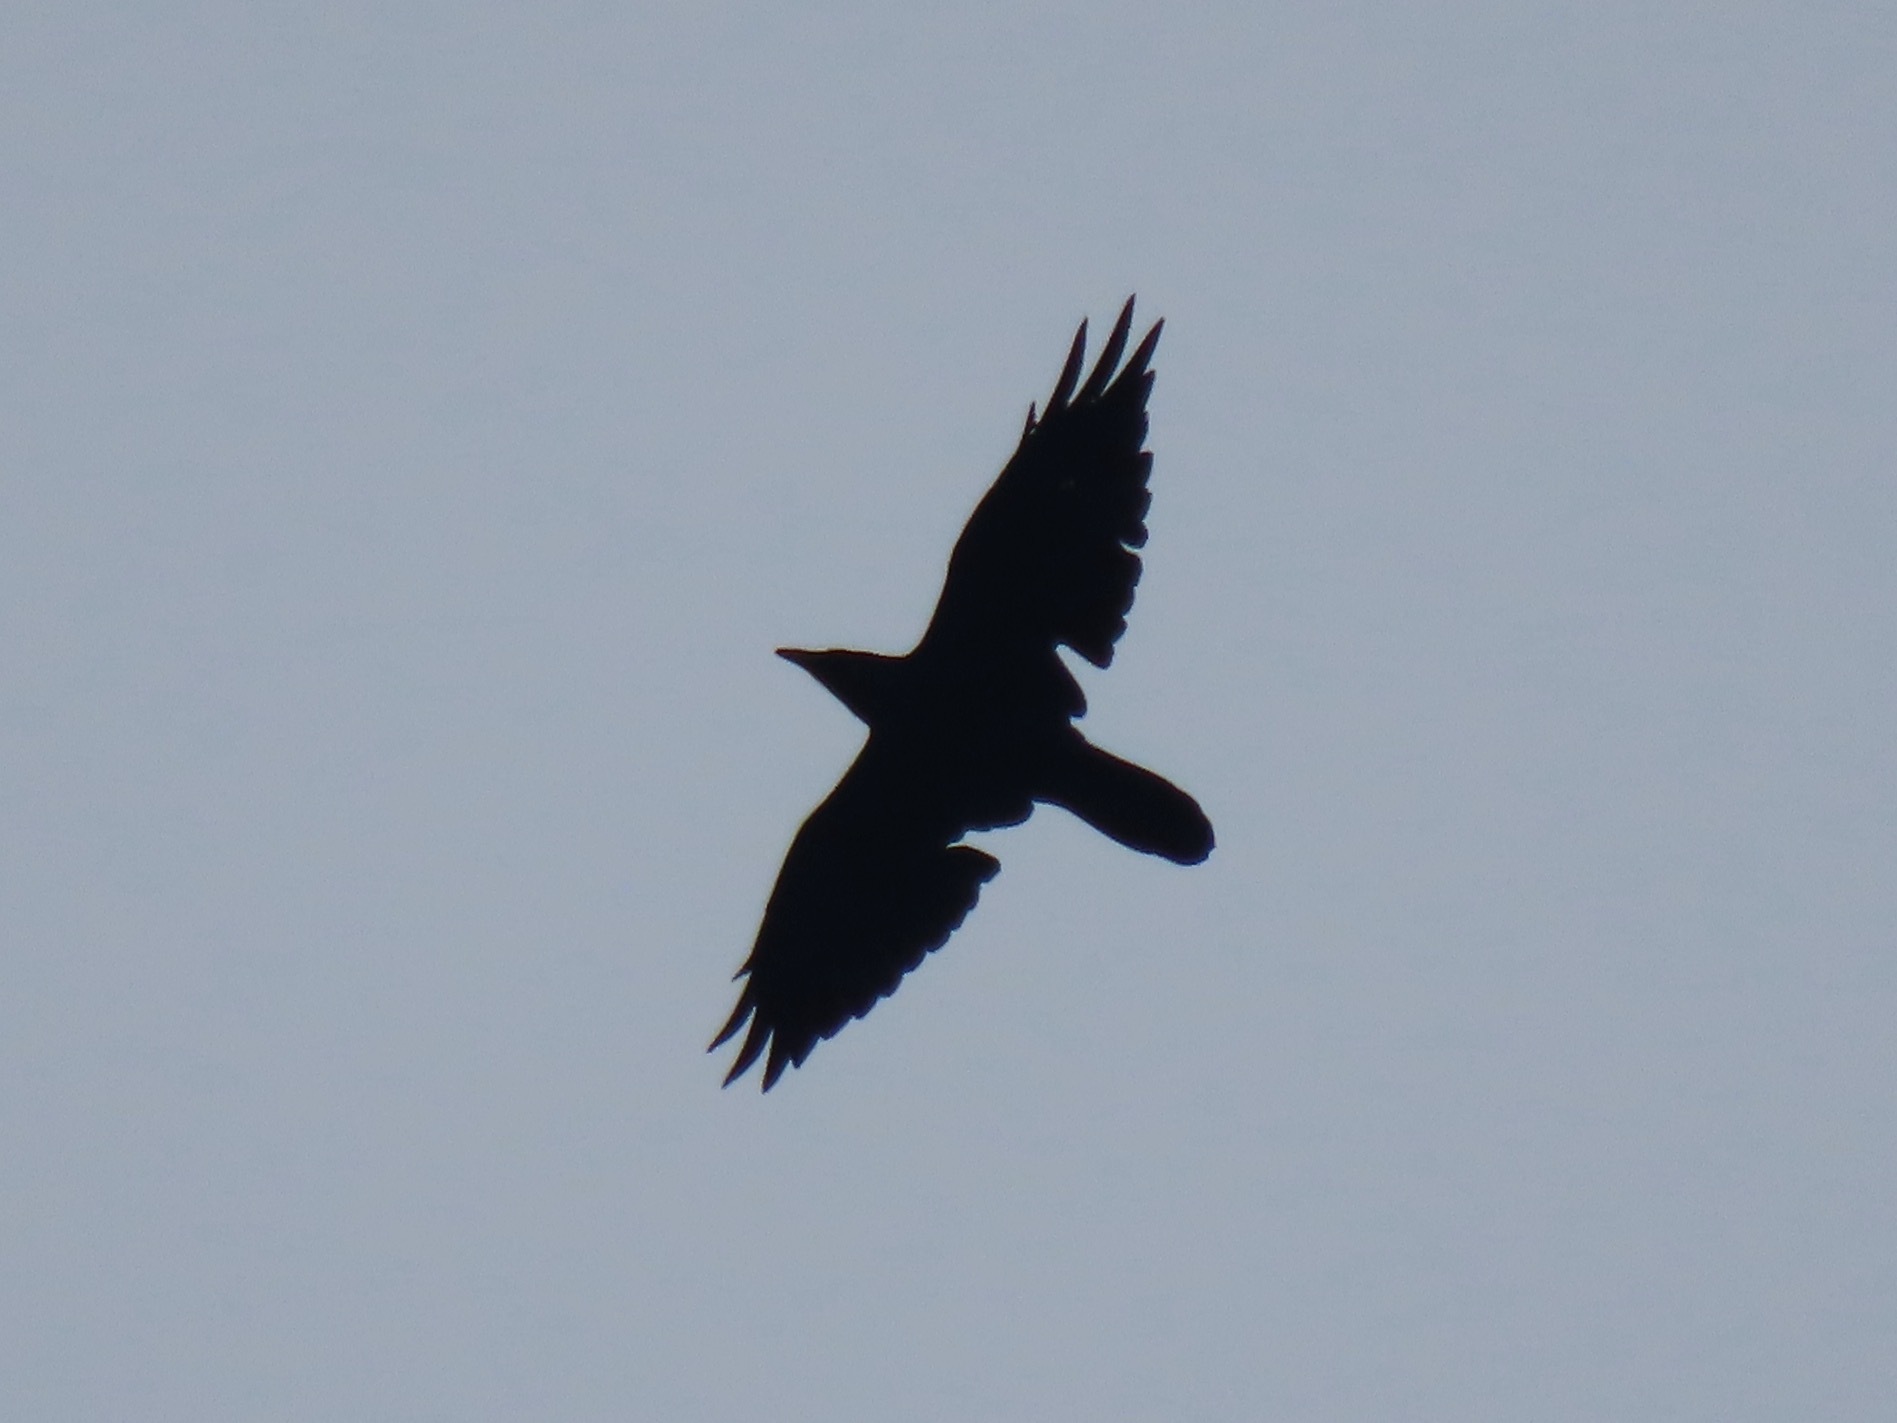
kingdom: Animalia
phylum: Chordata
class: Aves
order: Passeriformes
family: Corvidae
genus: Corvus
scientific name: Corvus corax
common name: Common raven
